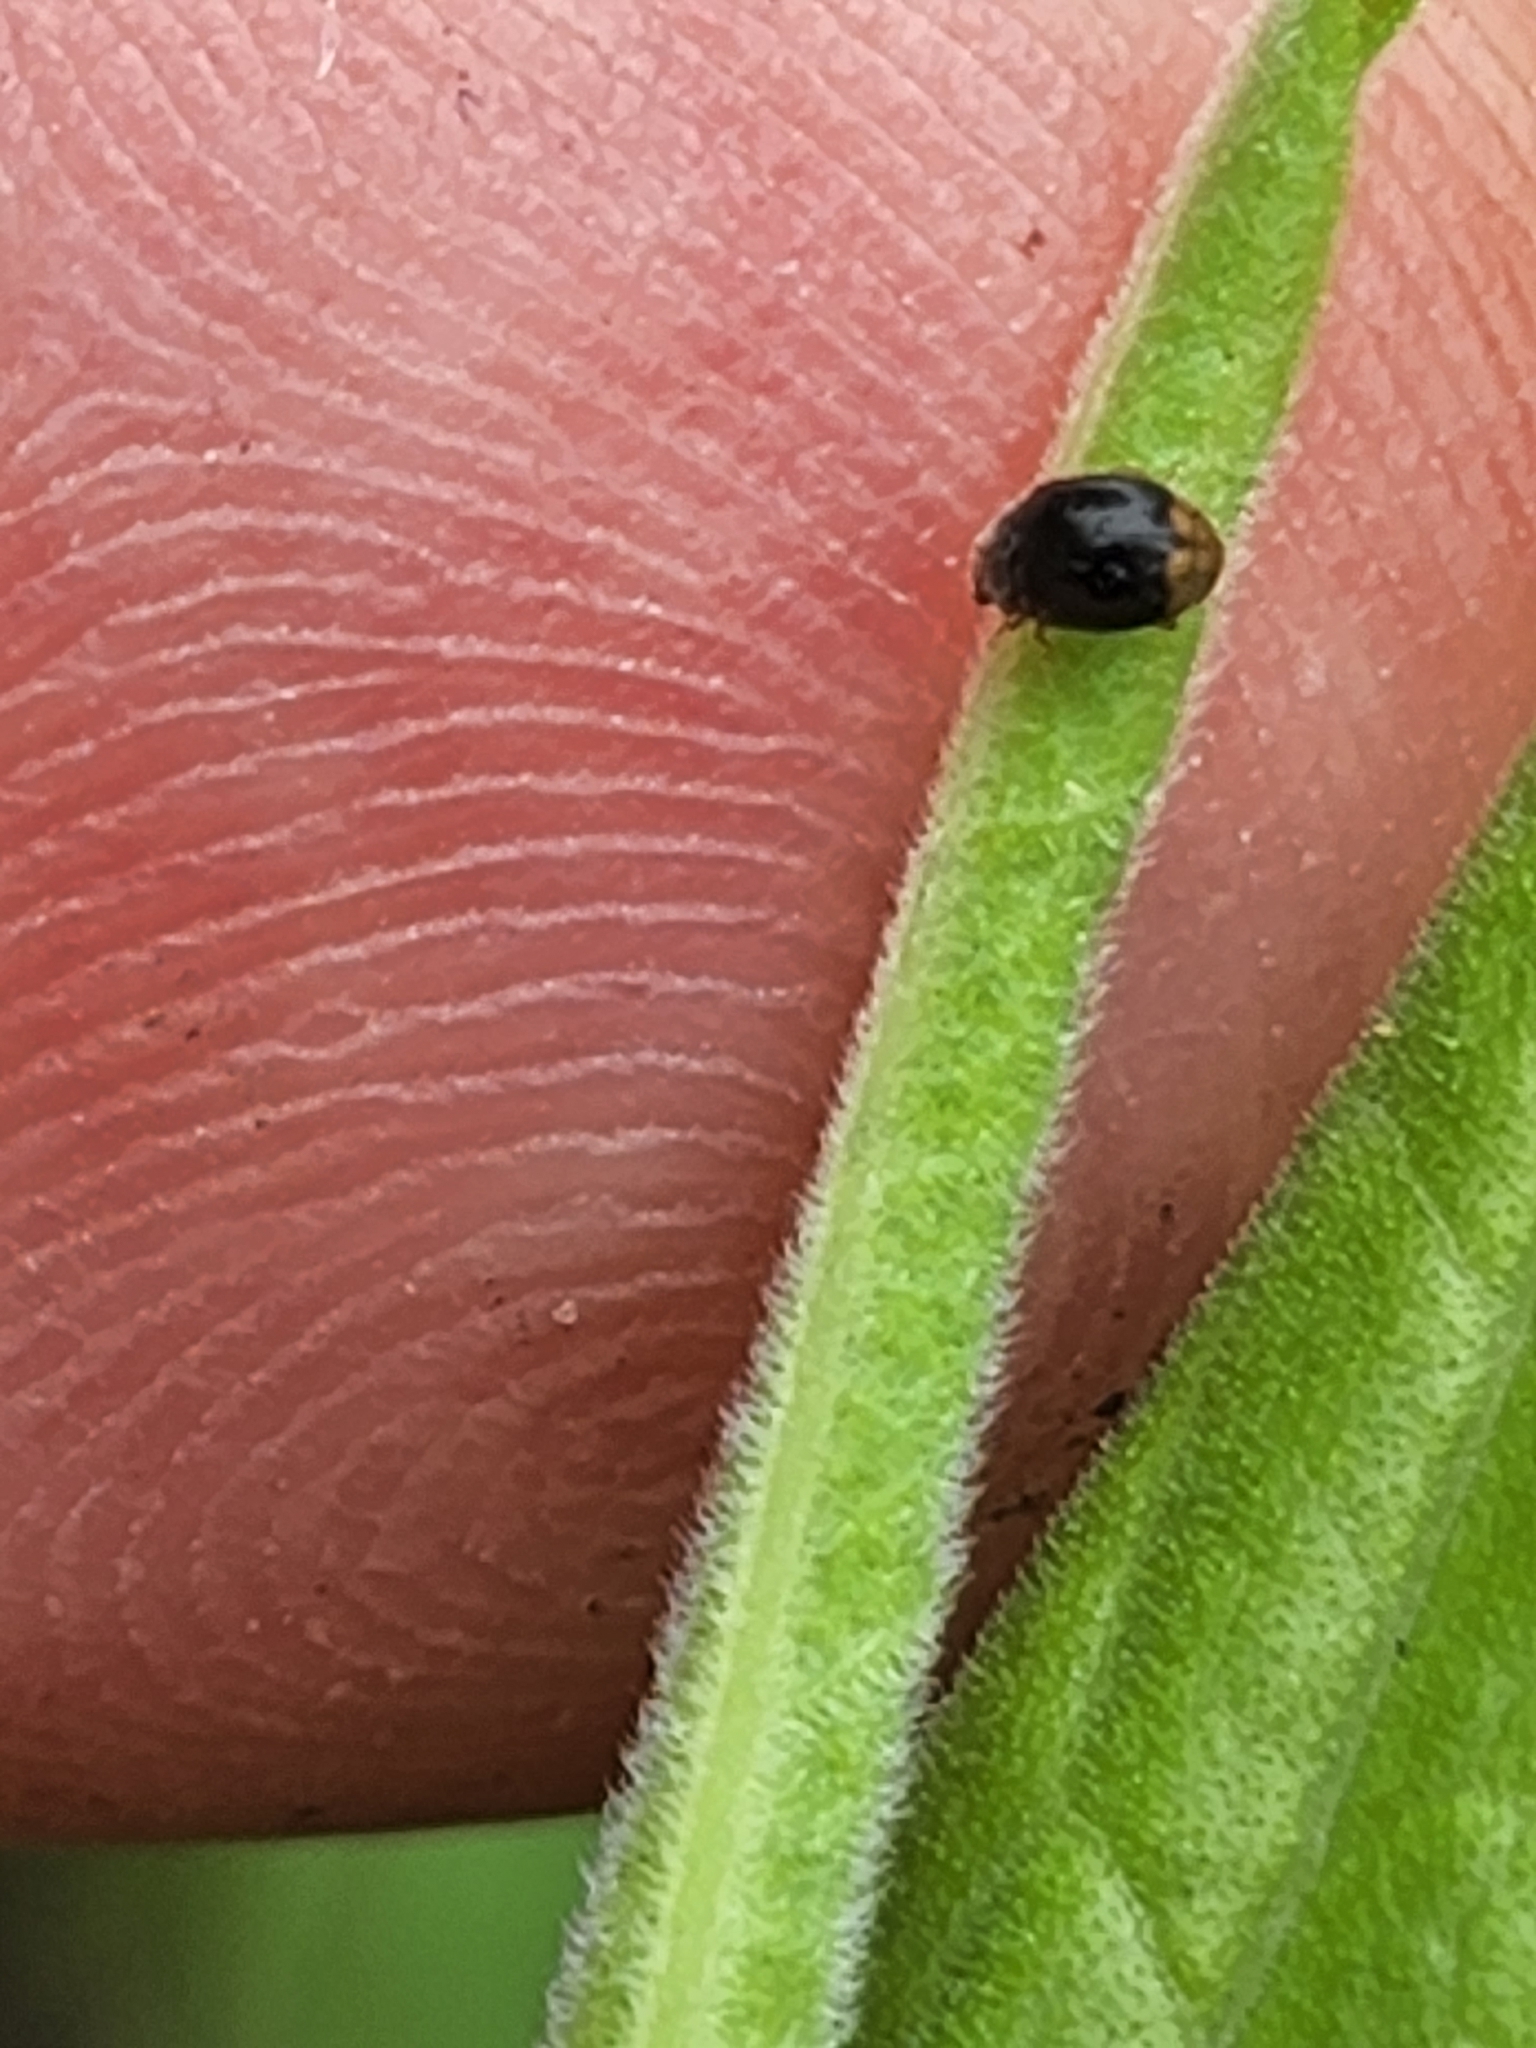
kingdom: Animalia
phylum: Arthropoda
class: Insecta
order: Coleoptera
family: Coccinellidae
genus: Diomus
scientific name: Diomus terminatus
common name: Firefly duskyling
